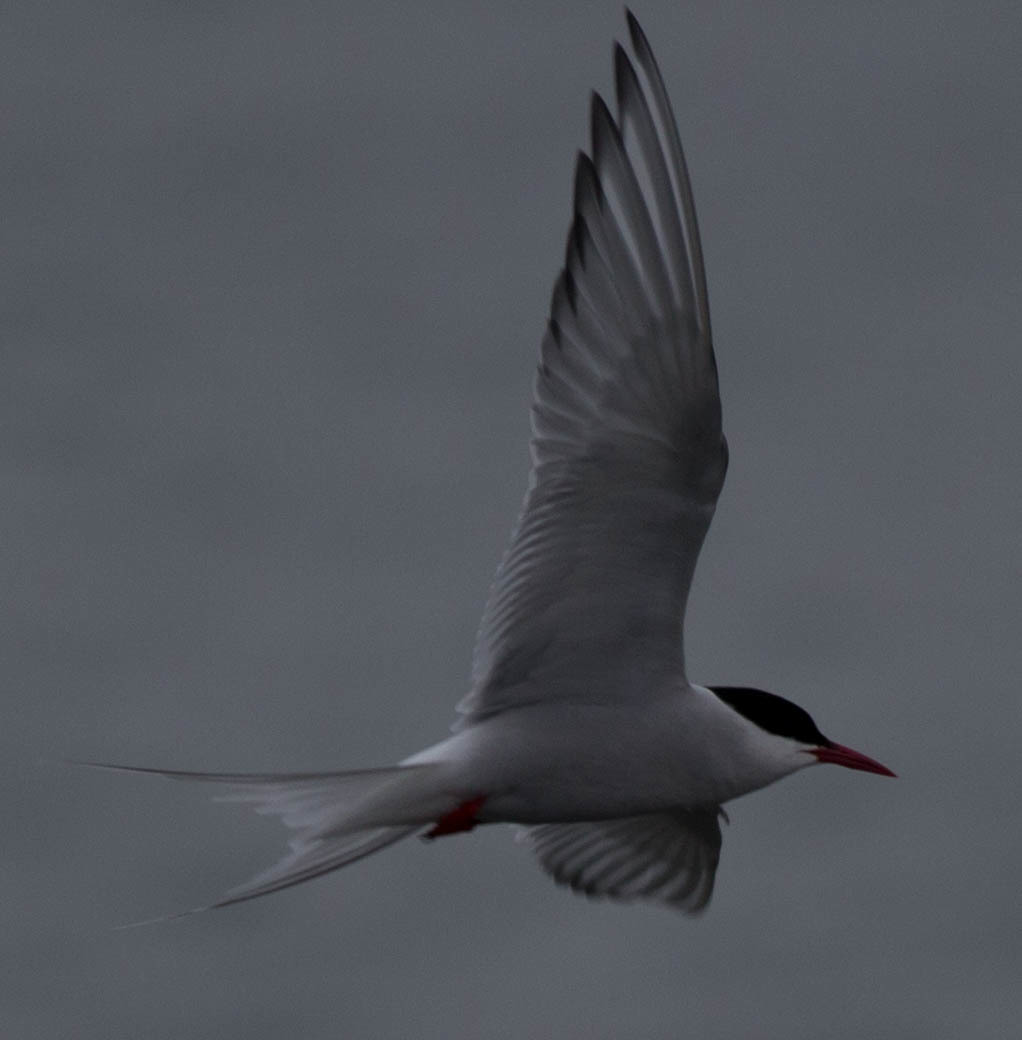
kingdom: Animalia
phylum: Chordata
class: Aves
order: Charadriiformes
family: Laridae
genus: Sterna
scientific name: Sterna paradisaea
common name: Arctic tern
